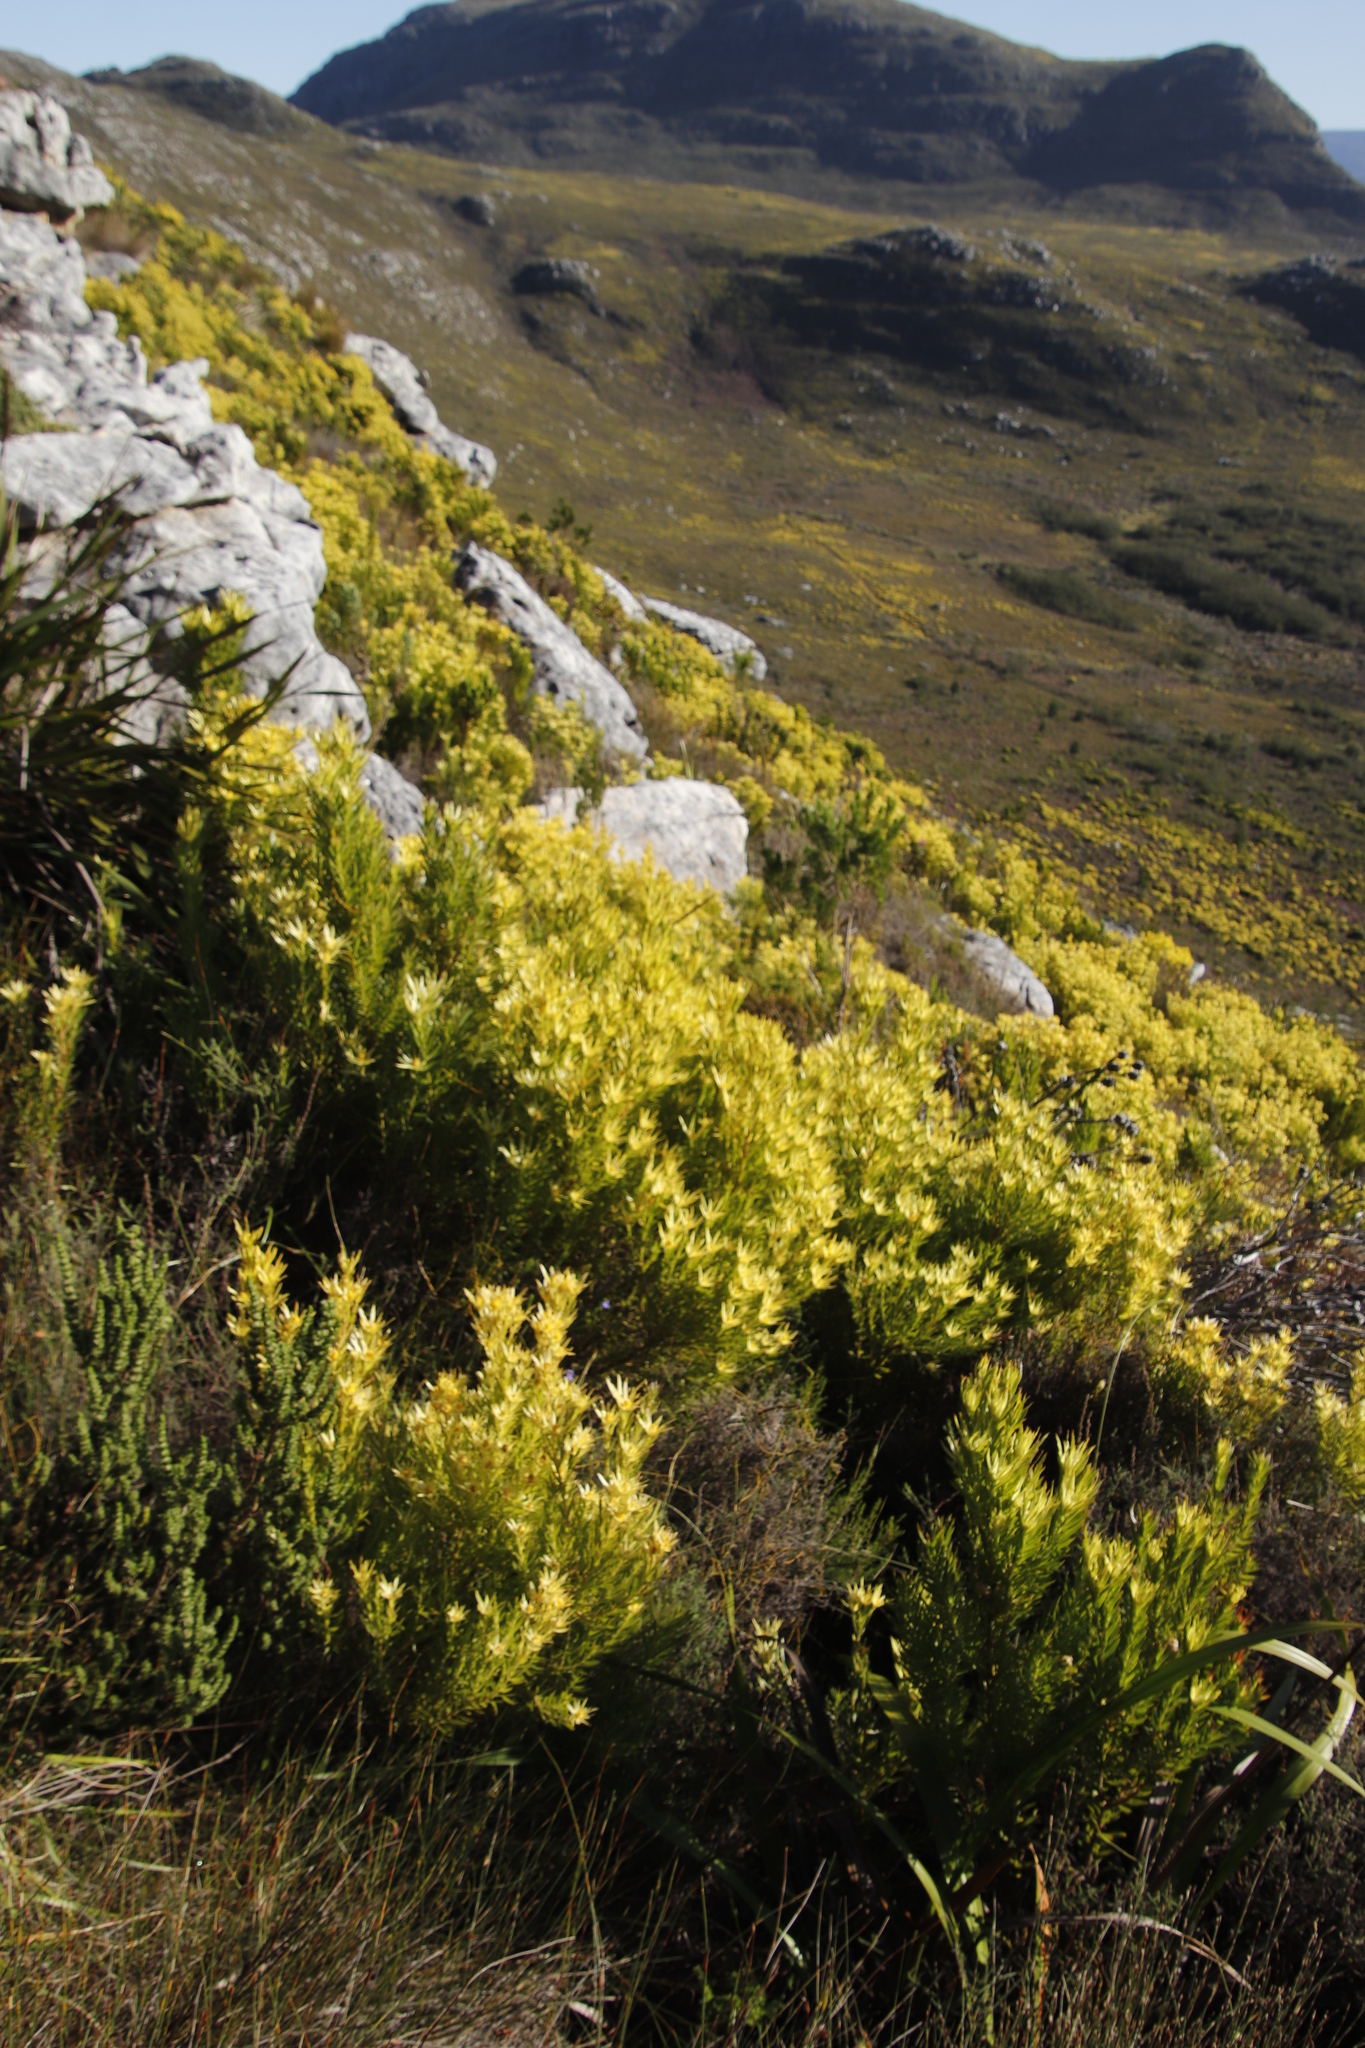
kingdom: Plantae
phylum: Tracheophyta
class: Magnoliopsida
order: Proteales
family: Proteaceae
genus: Leucadendron
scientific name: Leucadendron xanthoconus
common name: Sickle-leaf conebush
